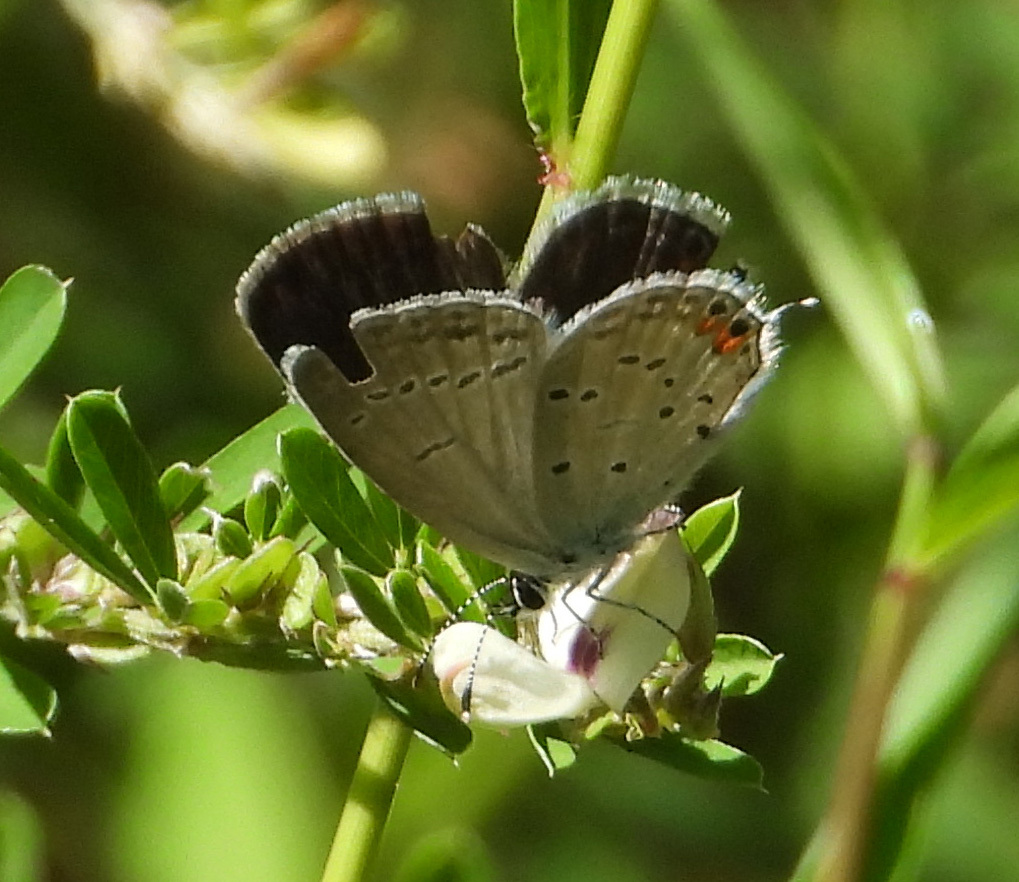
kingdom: Animalia
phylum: Arthropoda
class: Insecta
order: Lepidoptera
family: Lycaenidae
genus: Elkalyce
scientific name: Elkalyce comyntas
